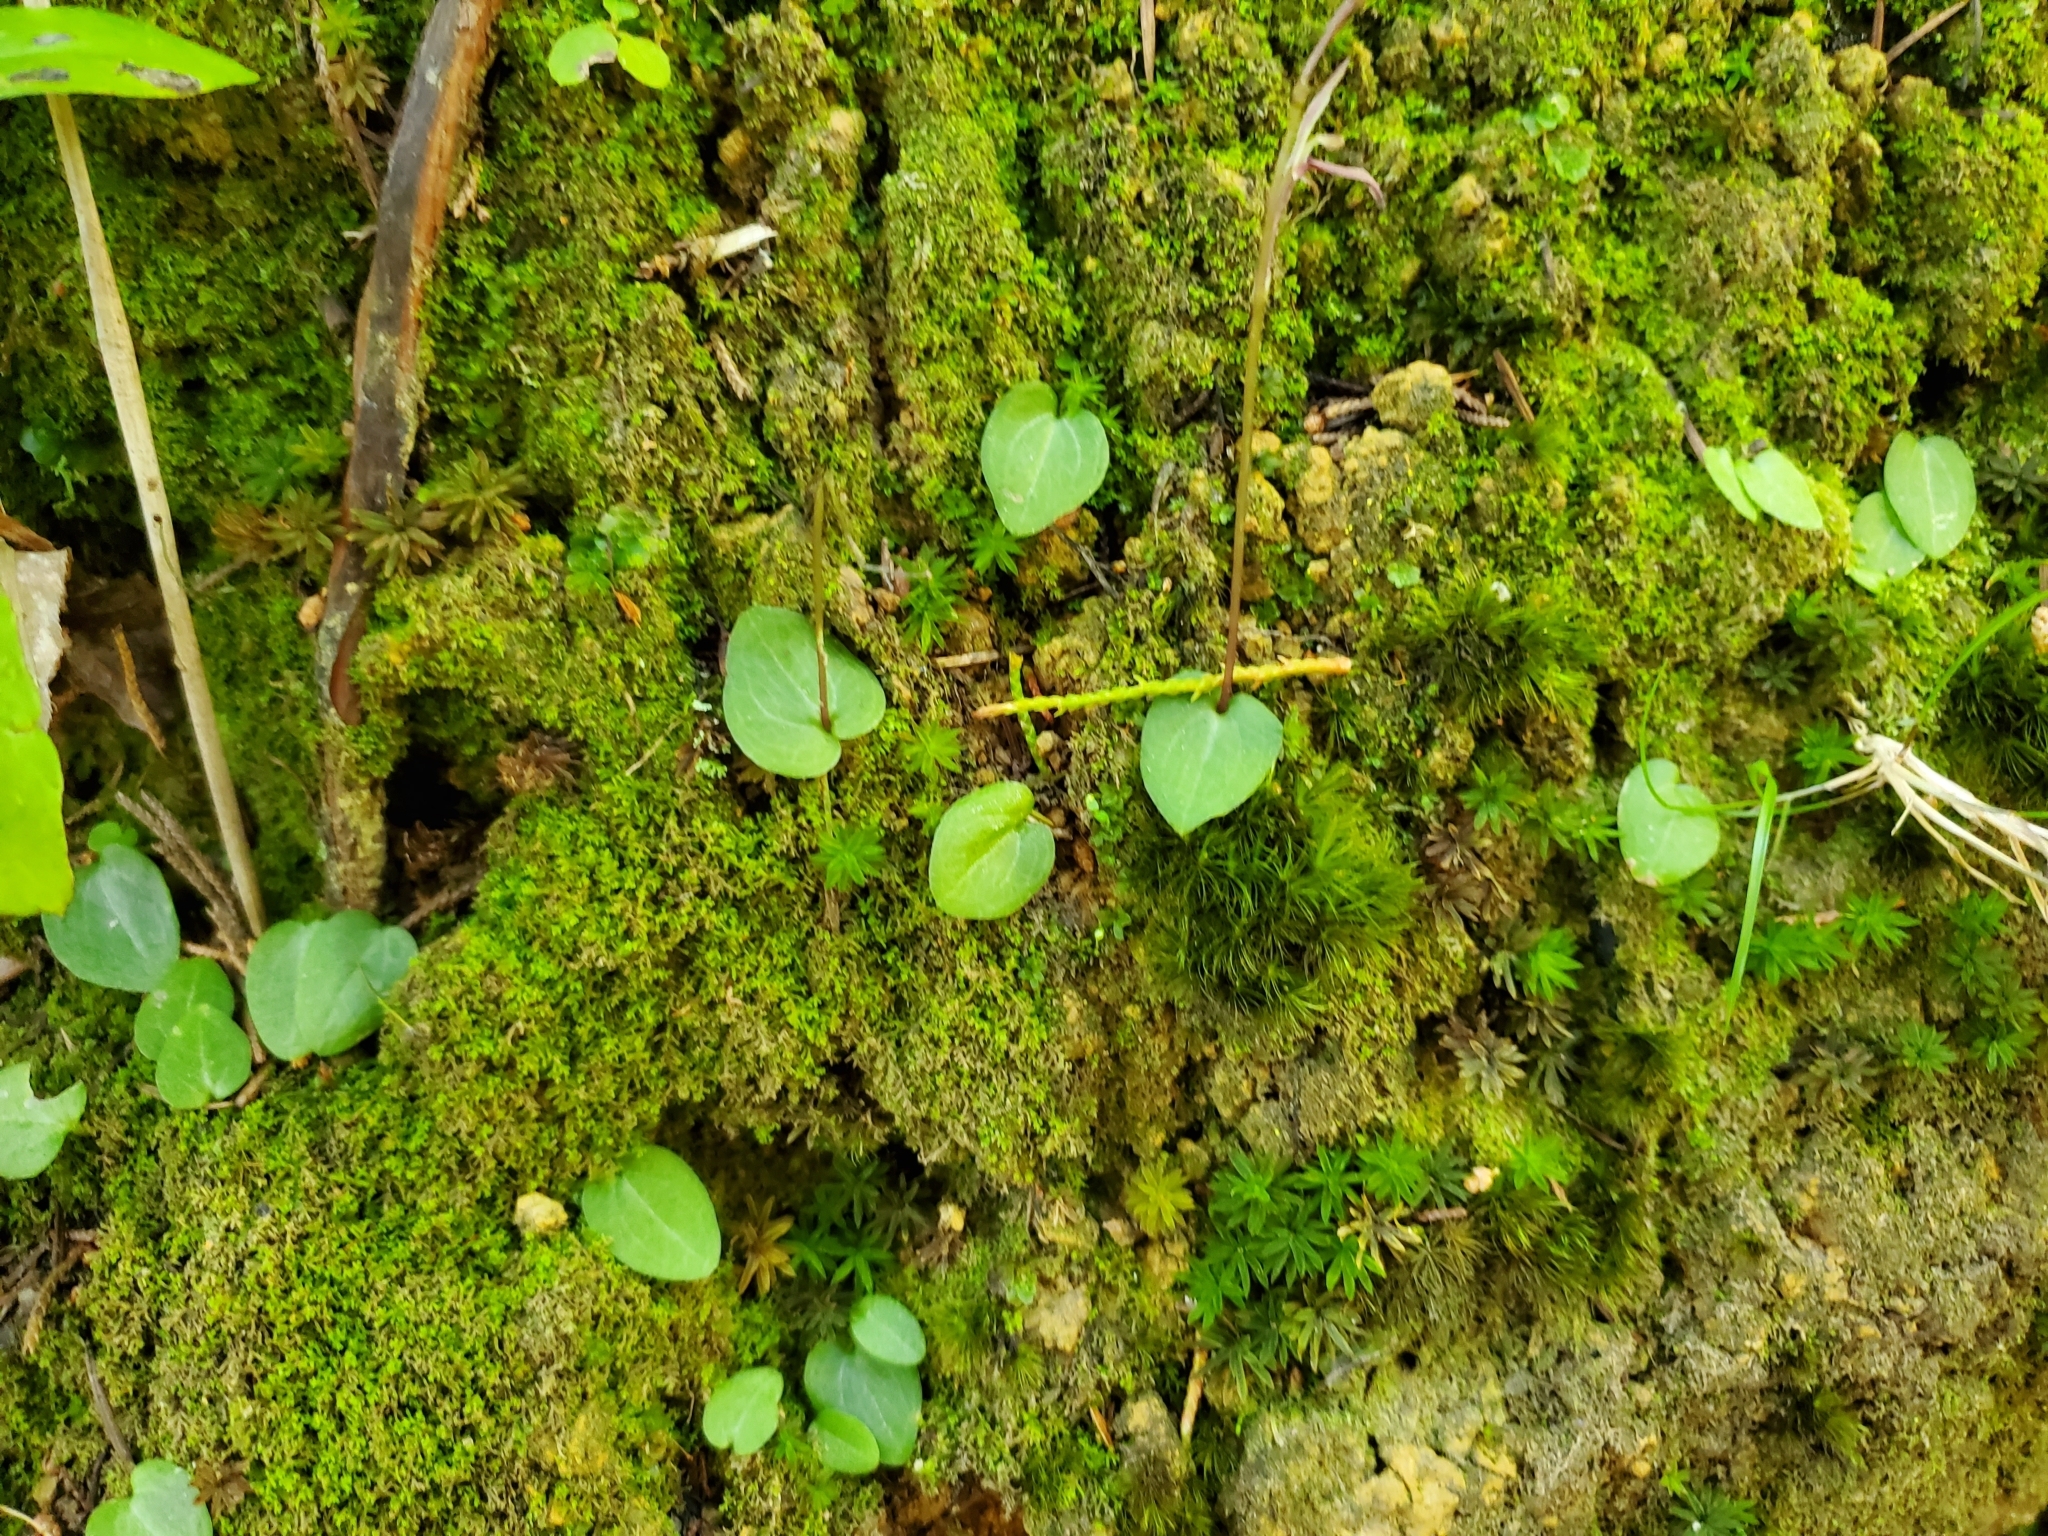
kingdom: Plantae
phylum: Tracheophyta
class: Liliopsida
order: Asparagales
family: Orchidaceae
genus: Cyrtostylis
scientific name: Cyrtostylis rotundifolia
